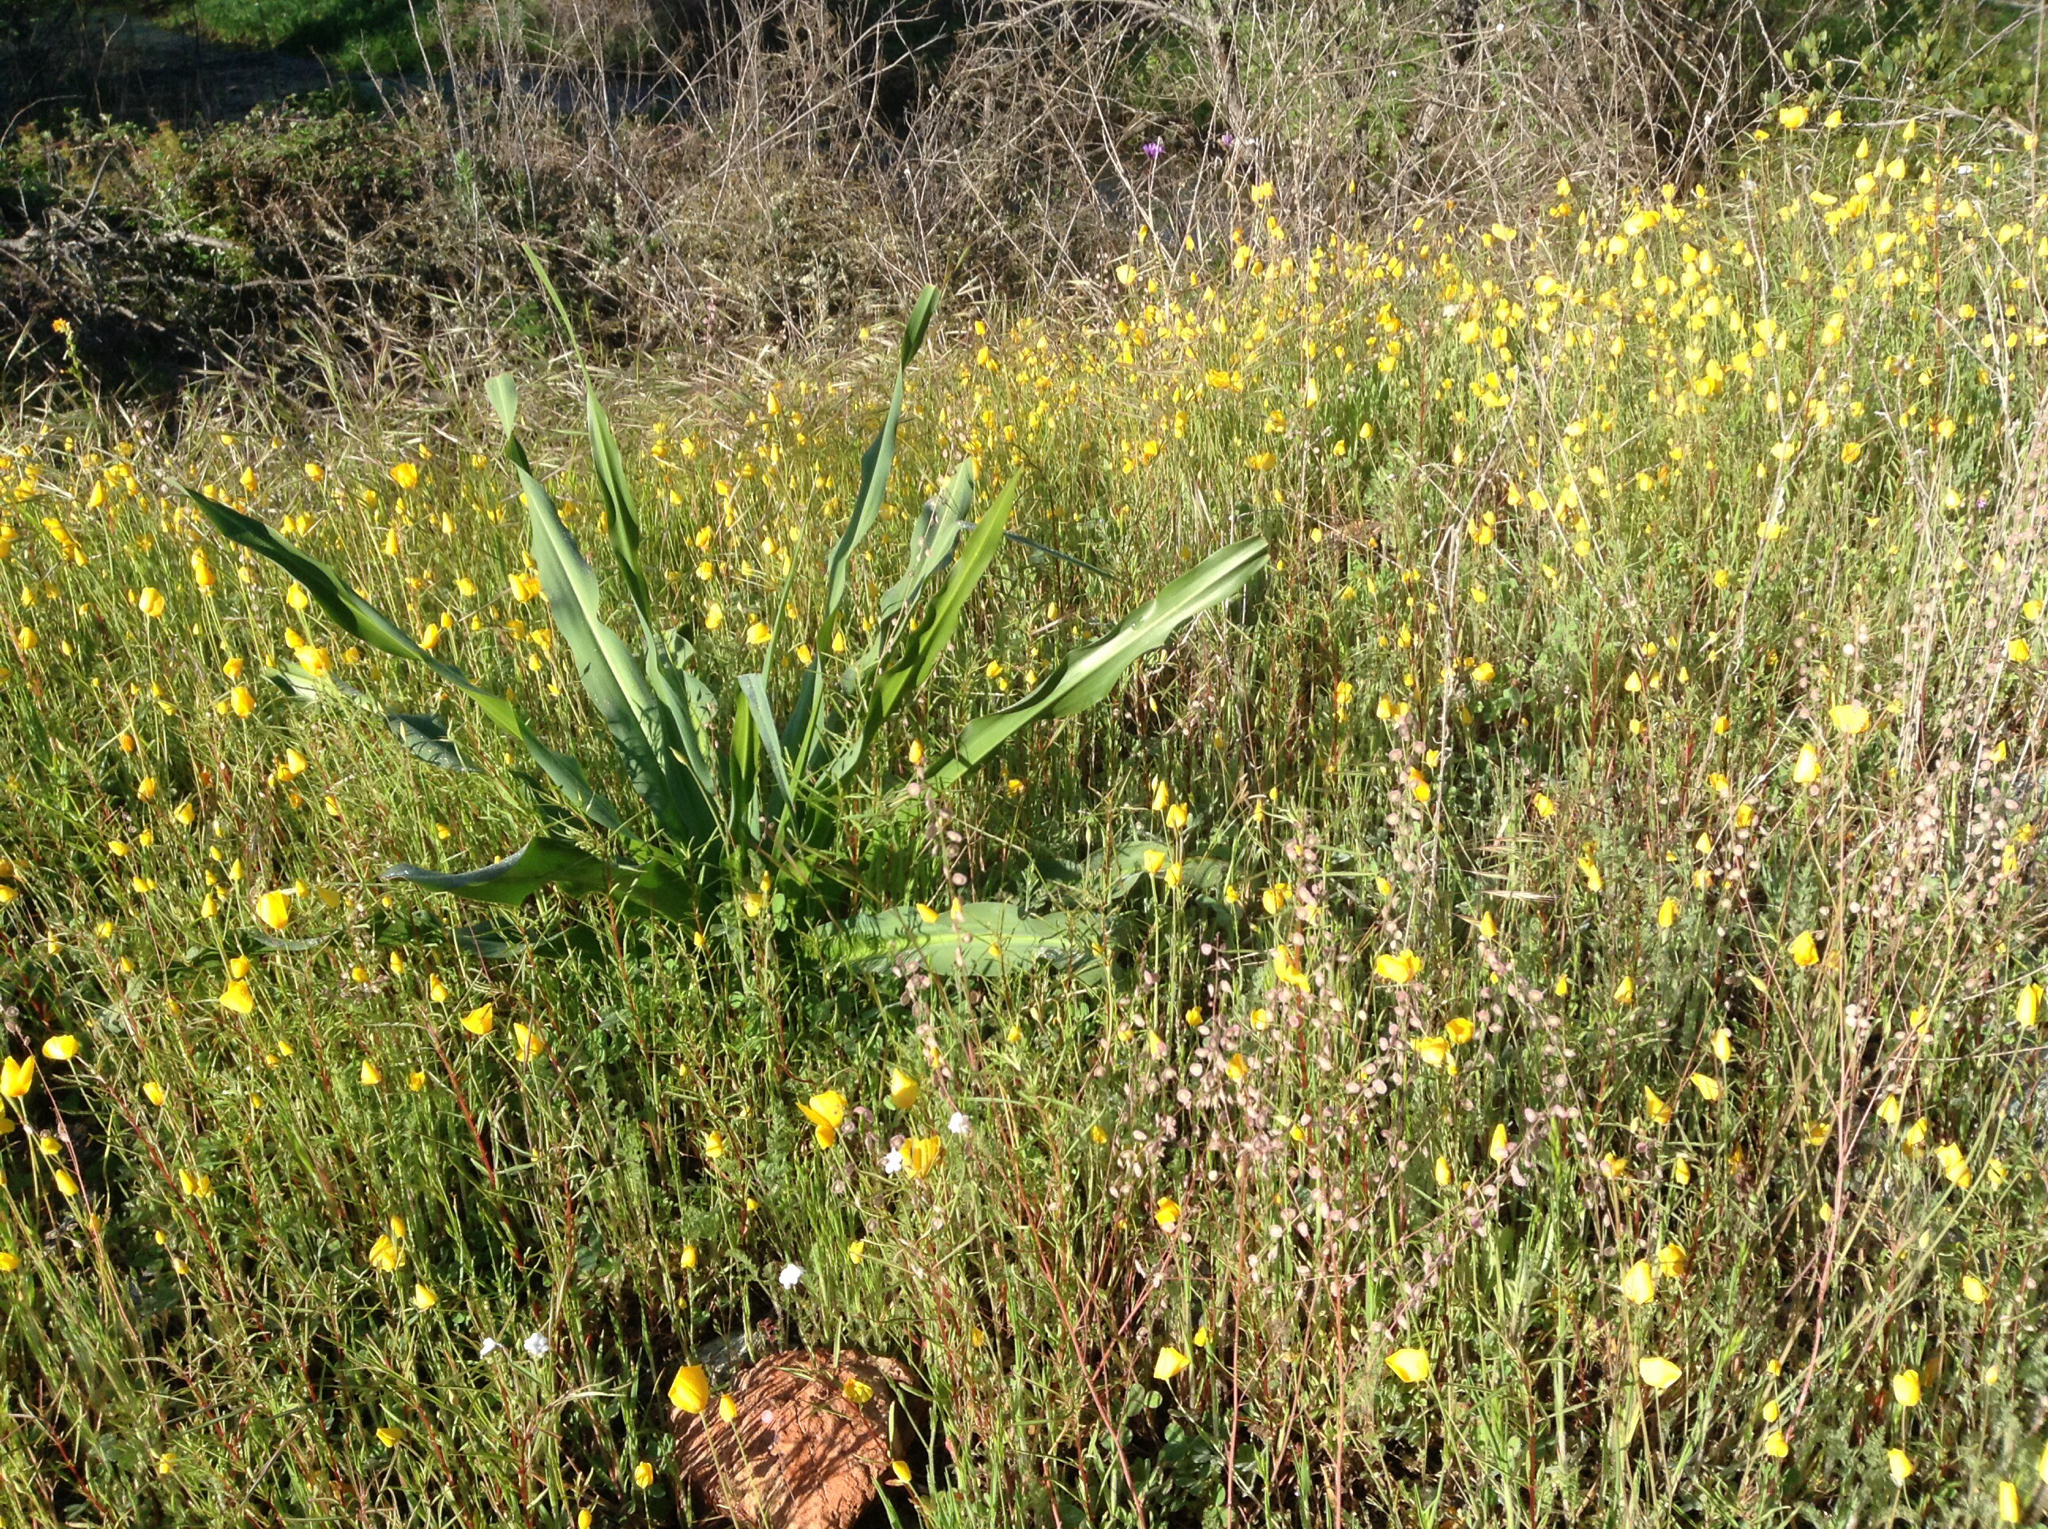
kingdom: Plantae
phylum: Tracheophyta
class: Liliopsida
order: Asparagales
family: Asparagaceae
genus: Chlorogalum
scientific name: Chlorogalum pomeridianum
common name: Amole
